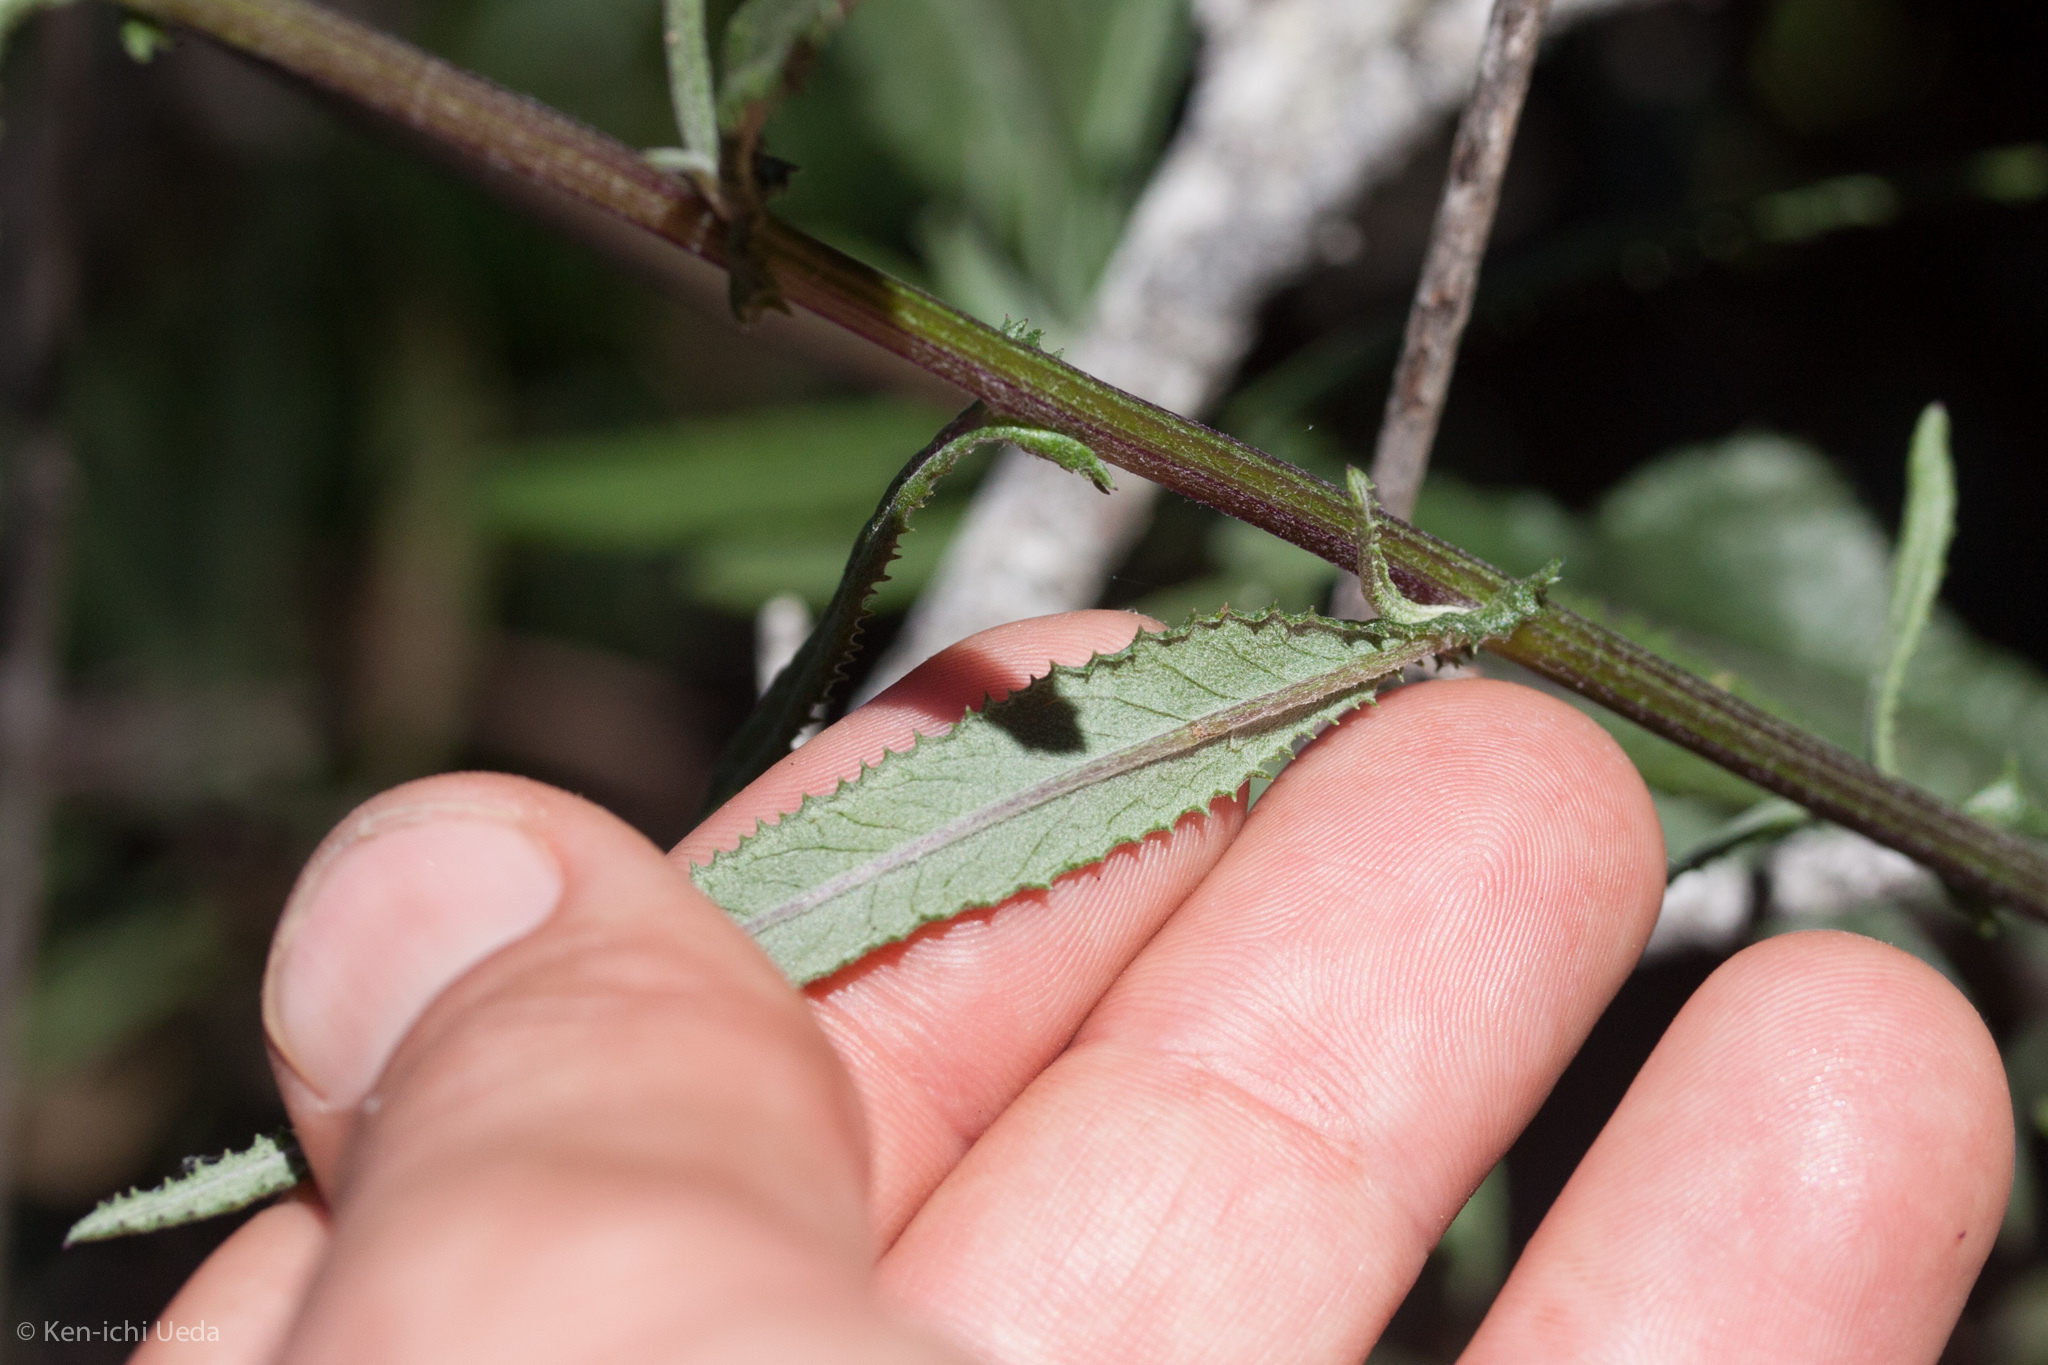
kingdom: Plantae
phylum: Tracheophyta
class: Magnoliopsida
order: Asterales
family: Asteraceae
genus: Senecio
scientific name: Senecio minimus
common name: Toothed fireweed
